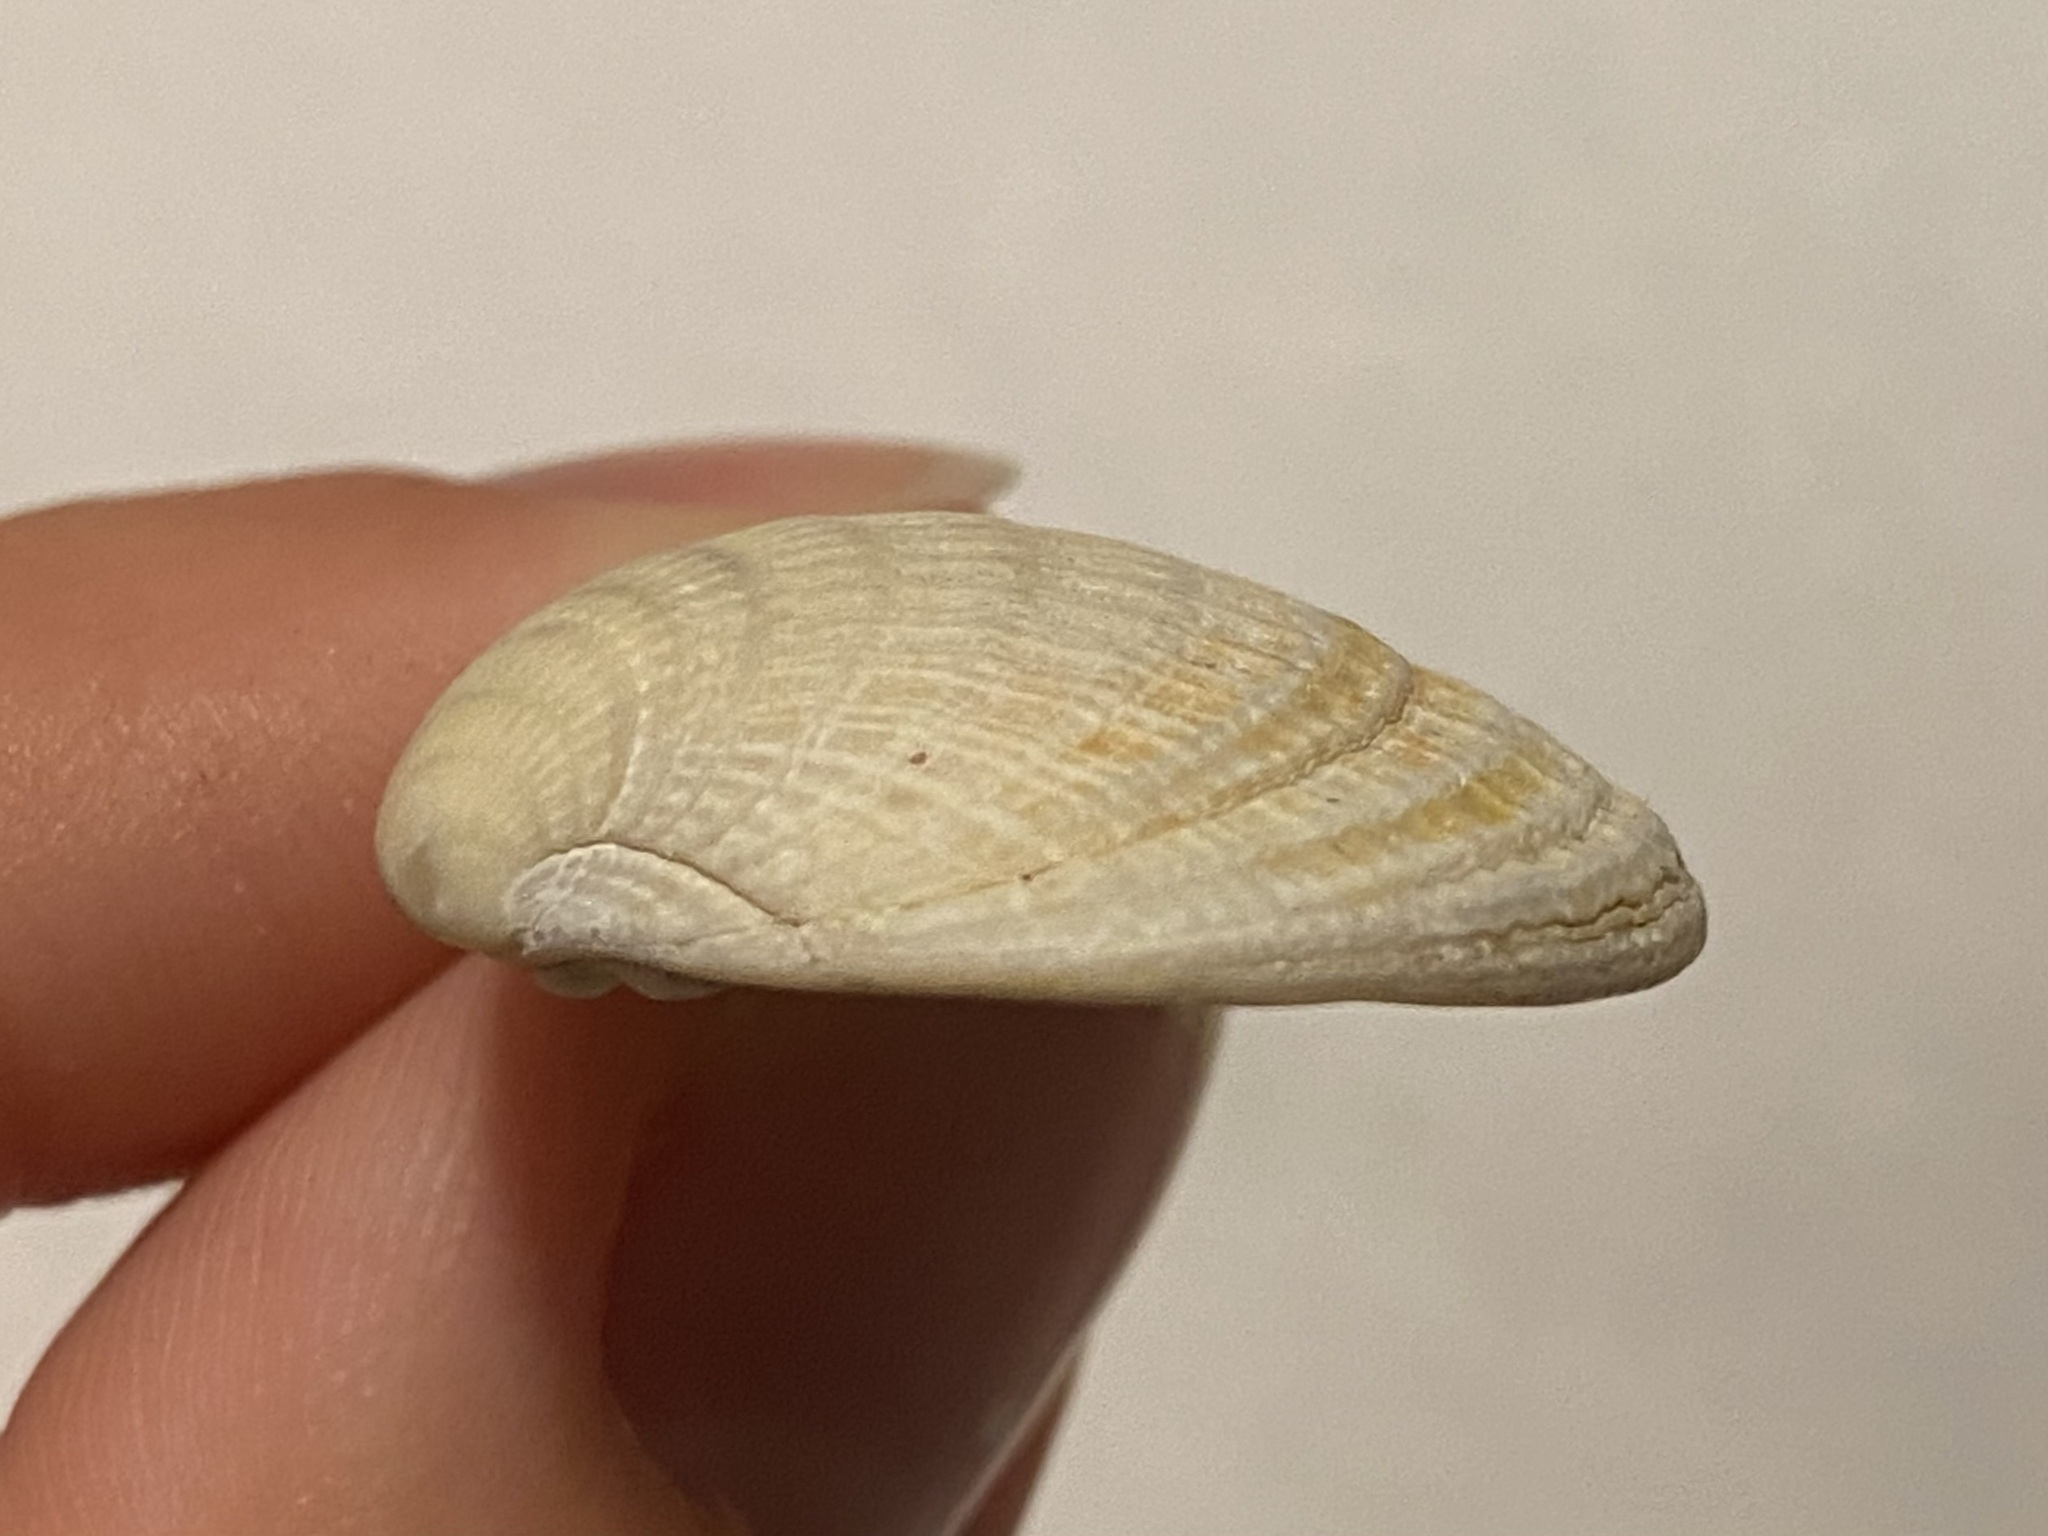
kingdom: Animalia
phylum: Mollusca
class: Bivalvia
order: Venerida
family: Veneridae
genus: Chione
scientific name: Chione elevata
